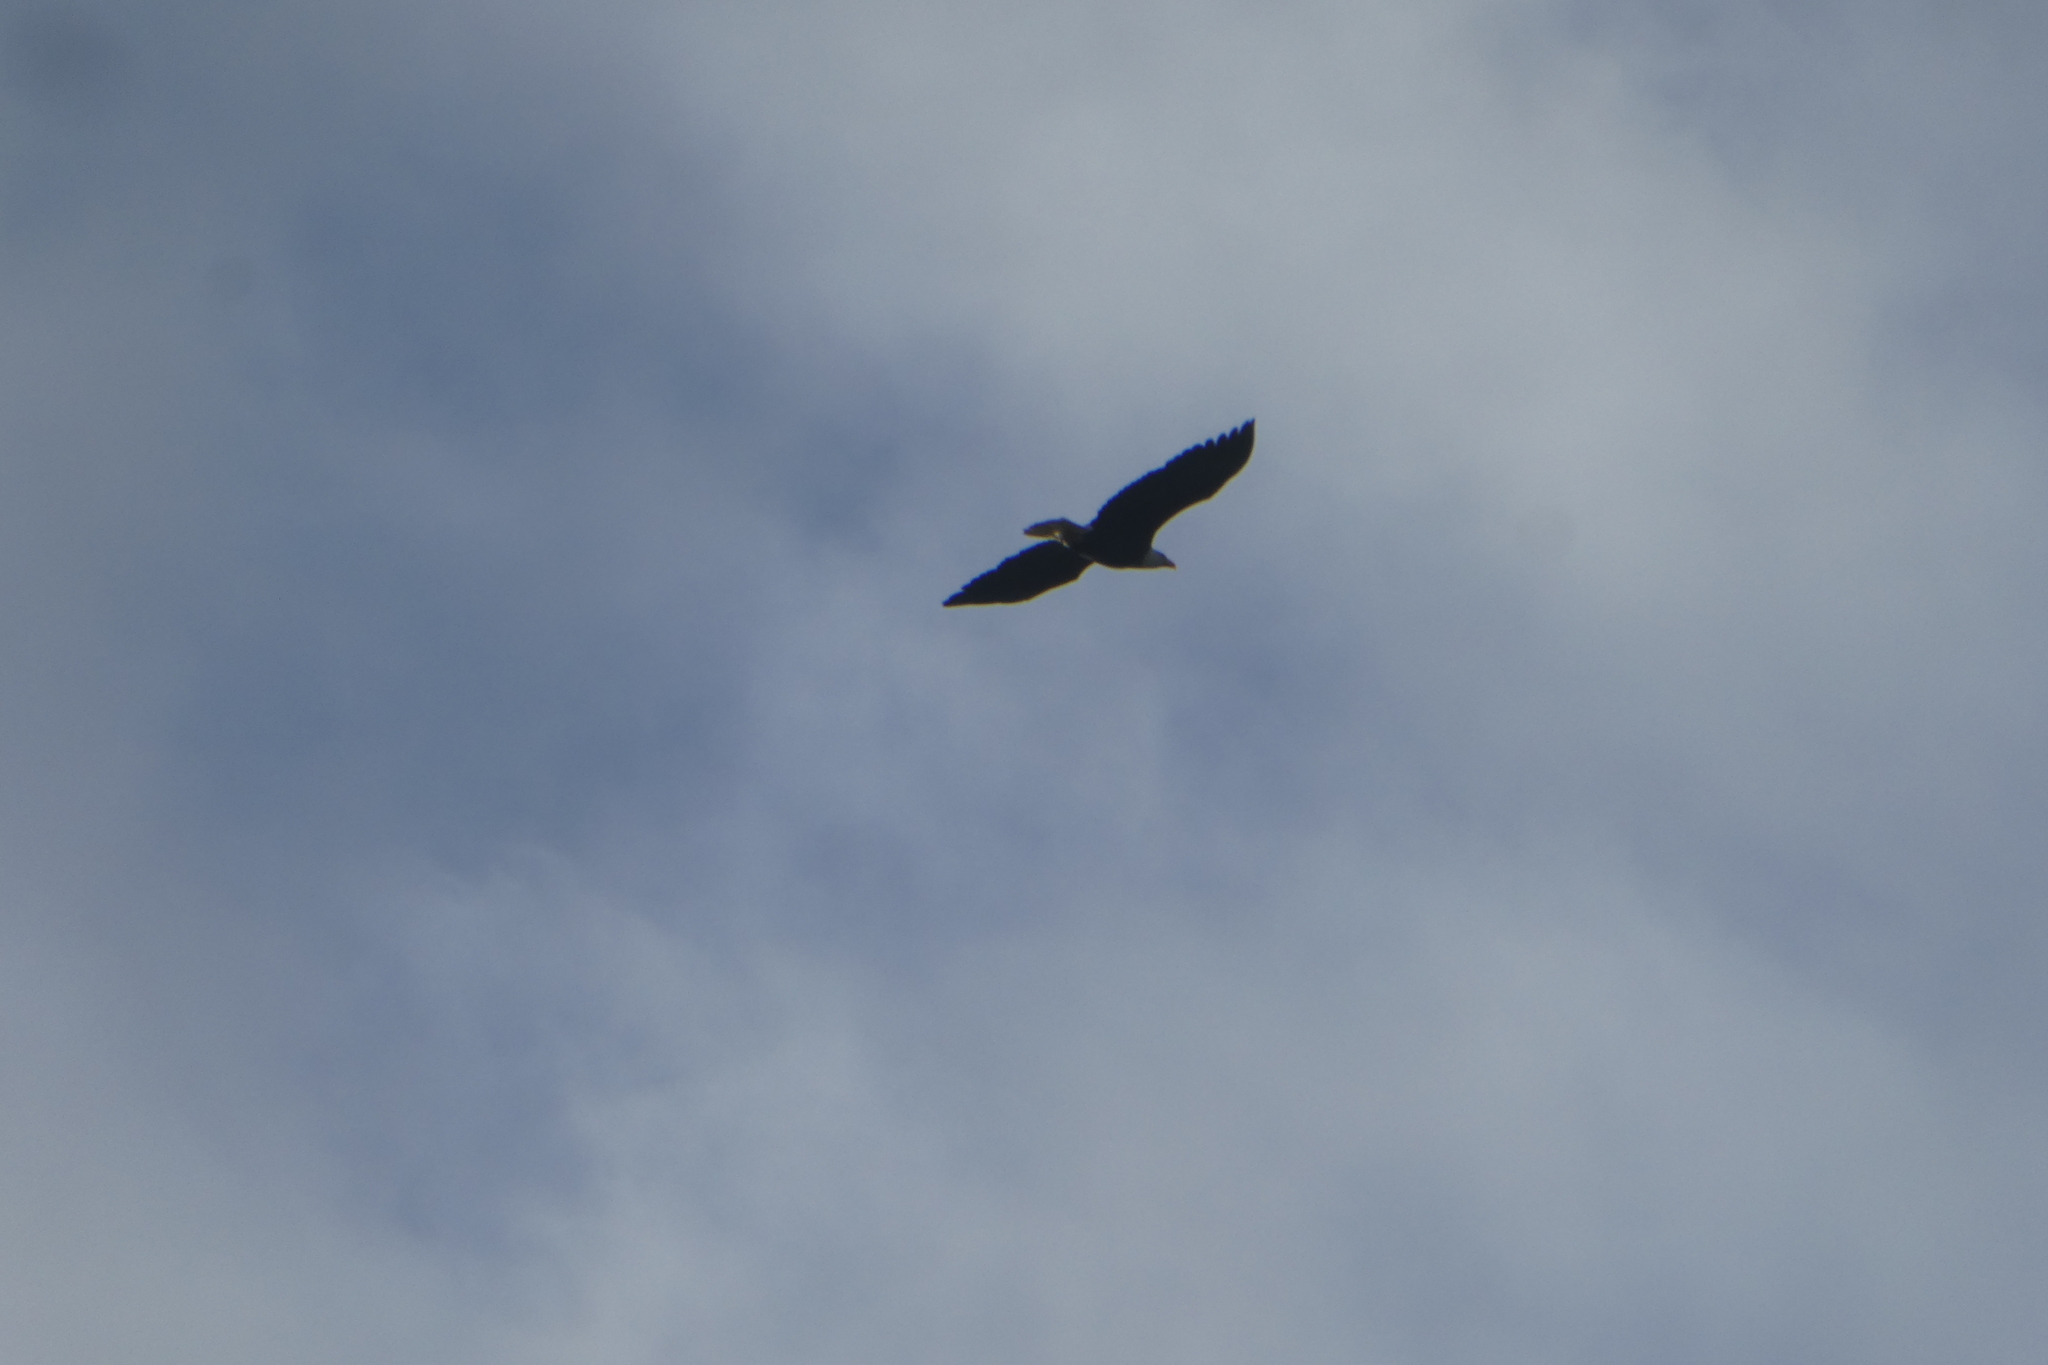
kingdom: Animalia
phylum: Chordata
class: Aves
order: Accipitriformes
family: Accipitridae
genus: Haliaeetus
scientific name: Haliaeetus leucocephalus
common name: Bald eagle
